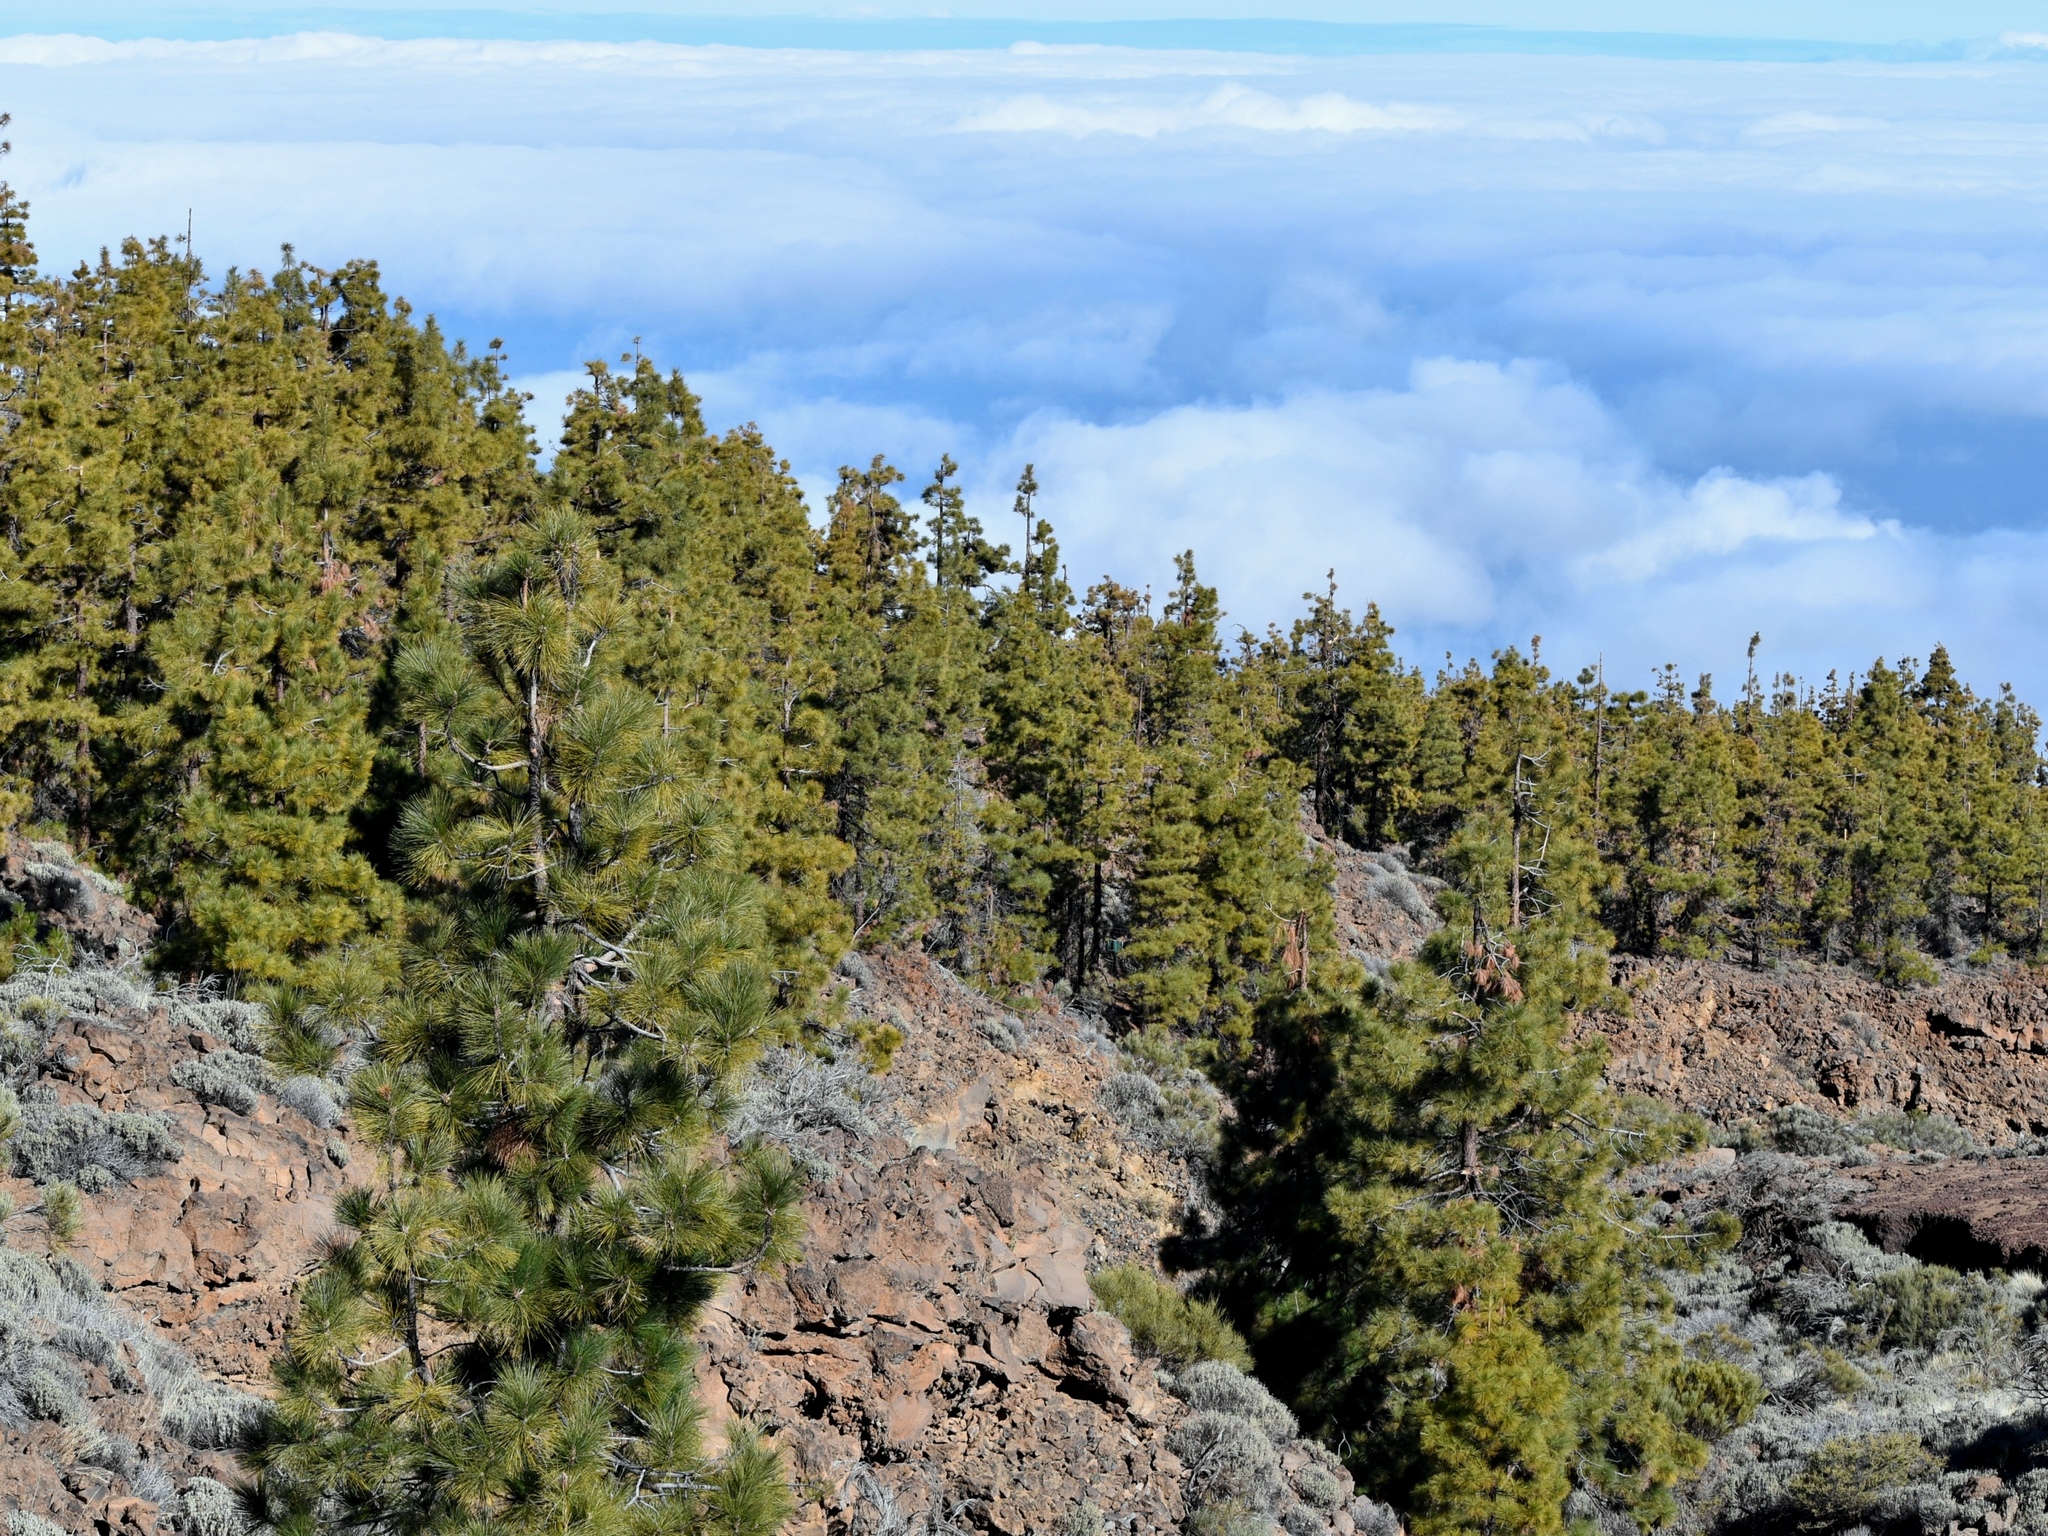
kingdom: Plantae
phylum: Tracheophyta
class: Pinopsida
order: Pinales
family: Pinaceae
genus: Pinus
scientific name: Pinus canariensis
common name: Canary islands pine
